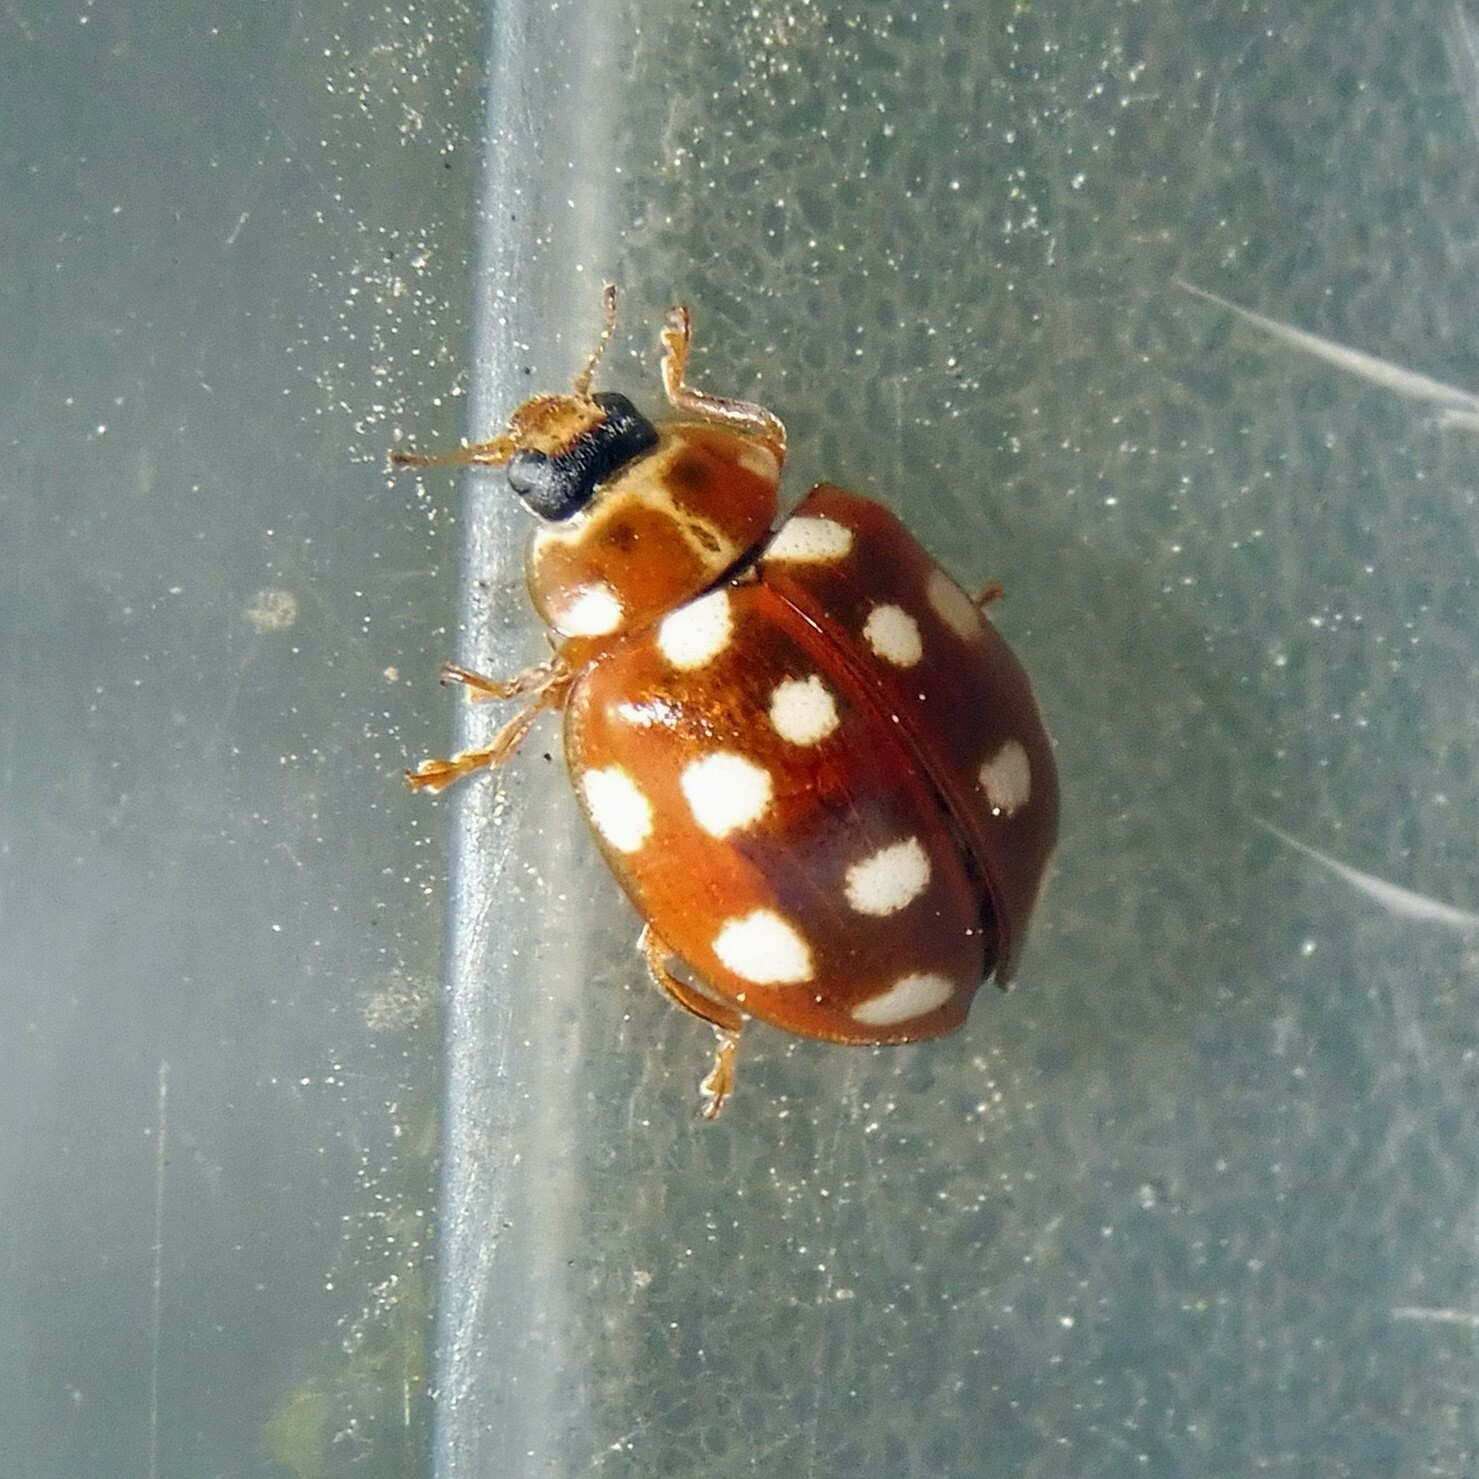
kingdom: Animalia
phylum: Arthropoda
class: Insecta
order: Coleoptera
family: Coccinellidae
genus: Calvia
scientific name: Calvia quatuordecimguttata
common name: Cream-spot ladybird
